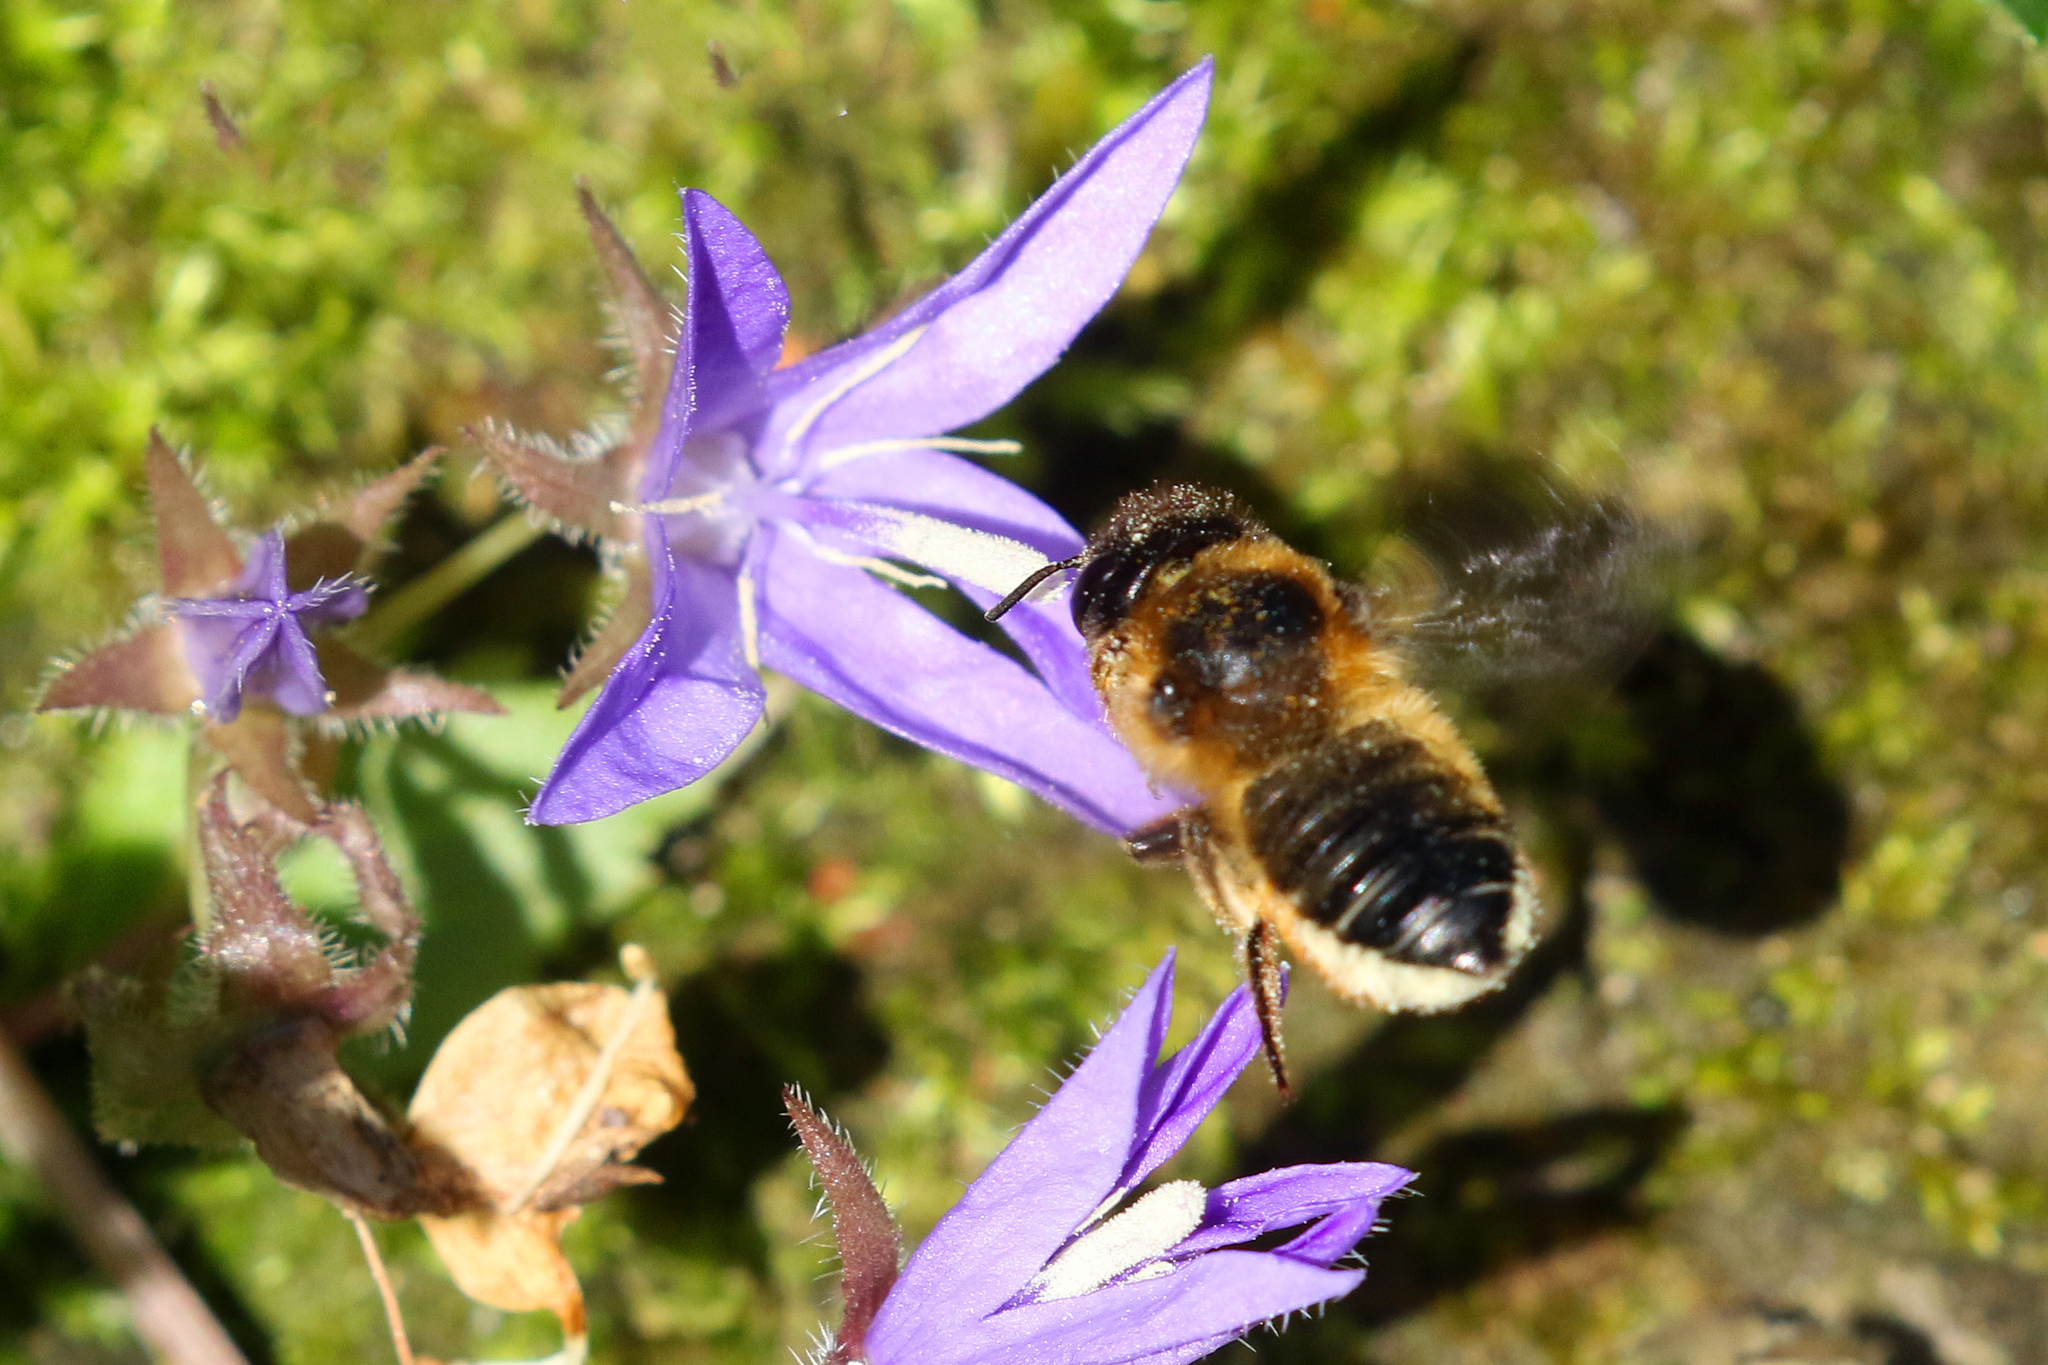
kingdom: Animalia
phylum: Arthropoda
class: Insecta
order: Hymenoptera
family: Megachilidae
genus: Megachile
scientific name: Megachile willughbiella
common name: Willughby's leafcutter bee
